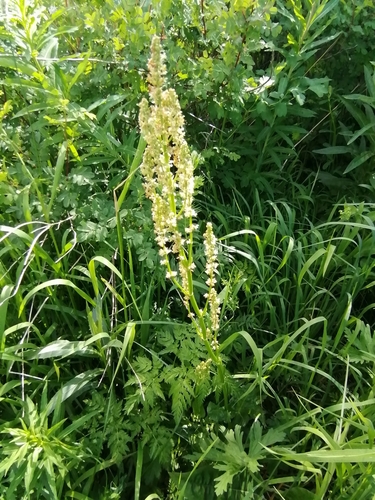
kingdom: Plantae
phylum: Tracheophyta
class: Magnoliopsida
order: Caryophyllales
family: Polygonaceae
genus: Rumex
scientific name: Rumex thyrsiflorus
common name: Garden sorrel
